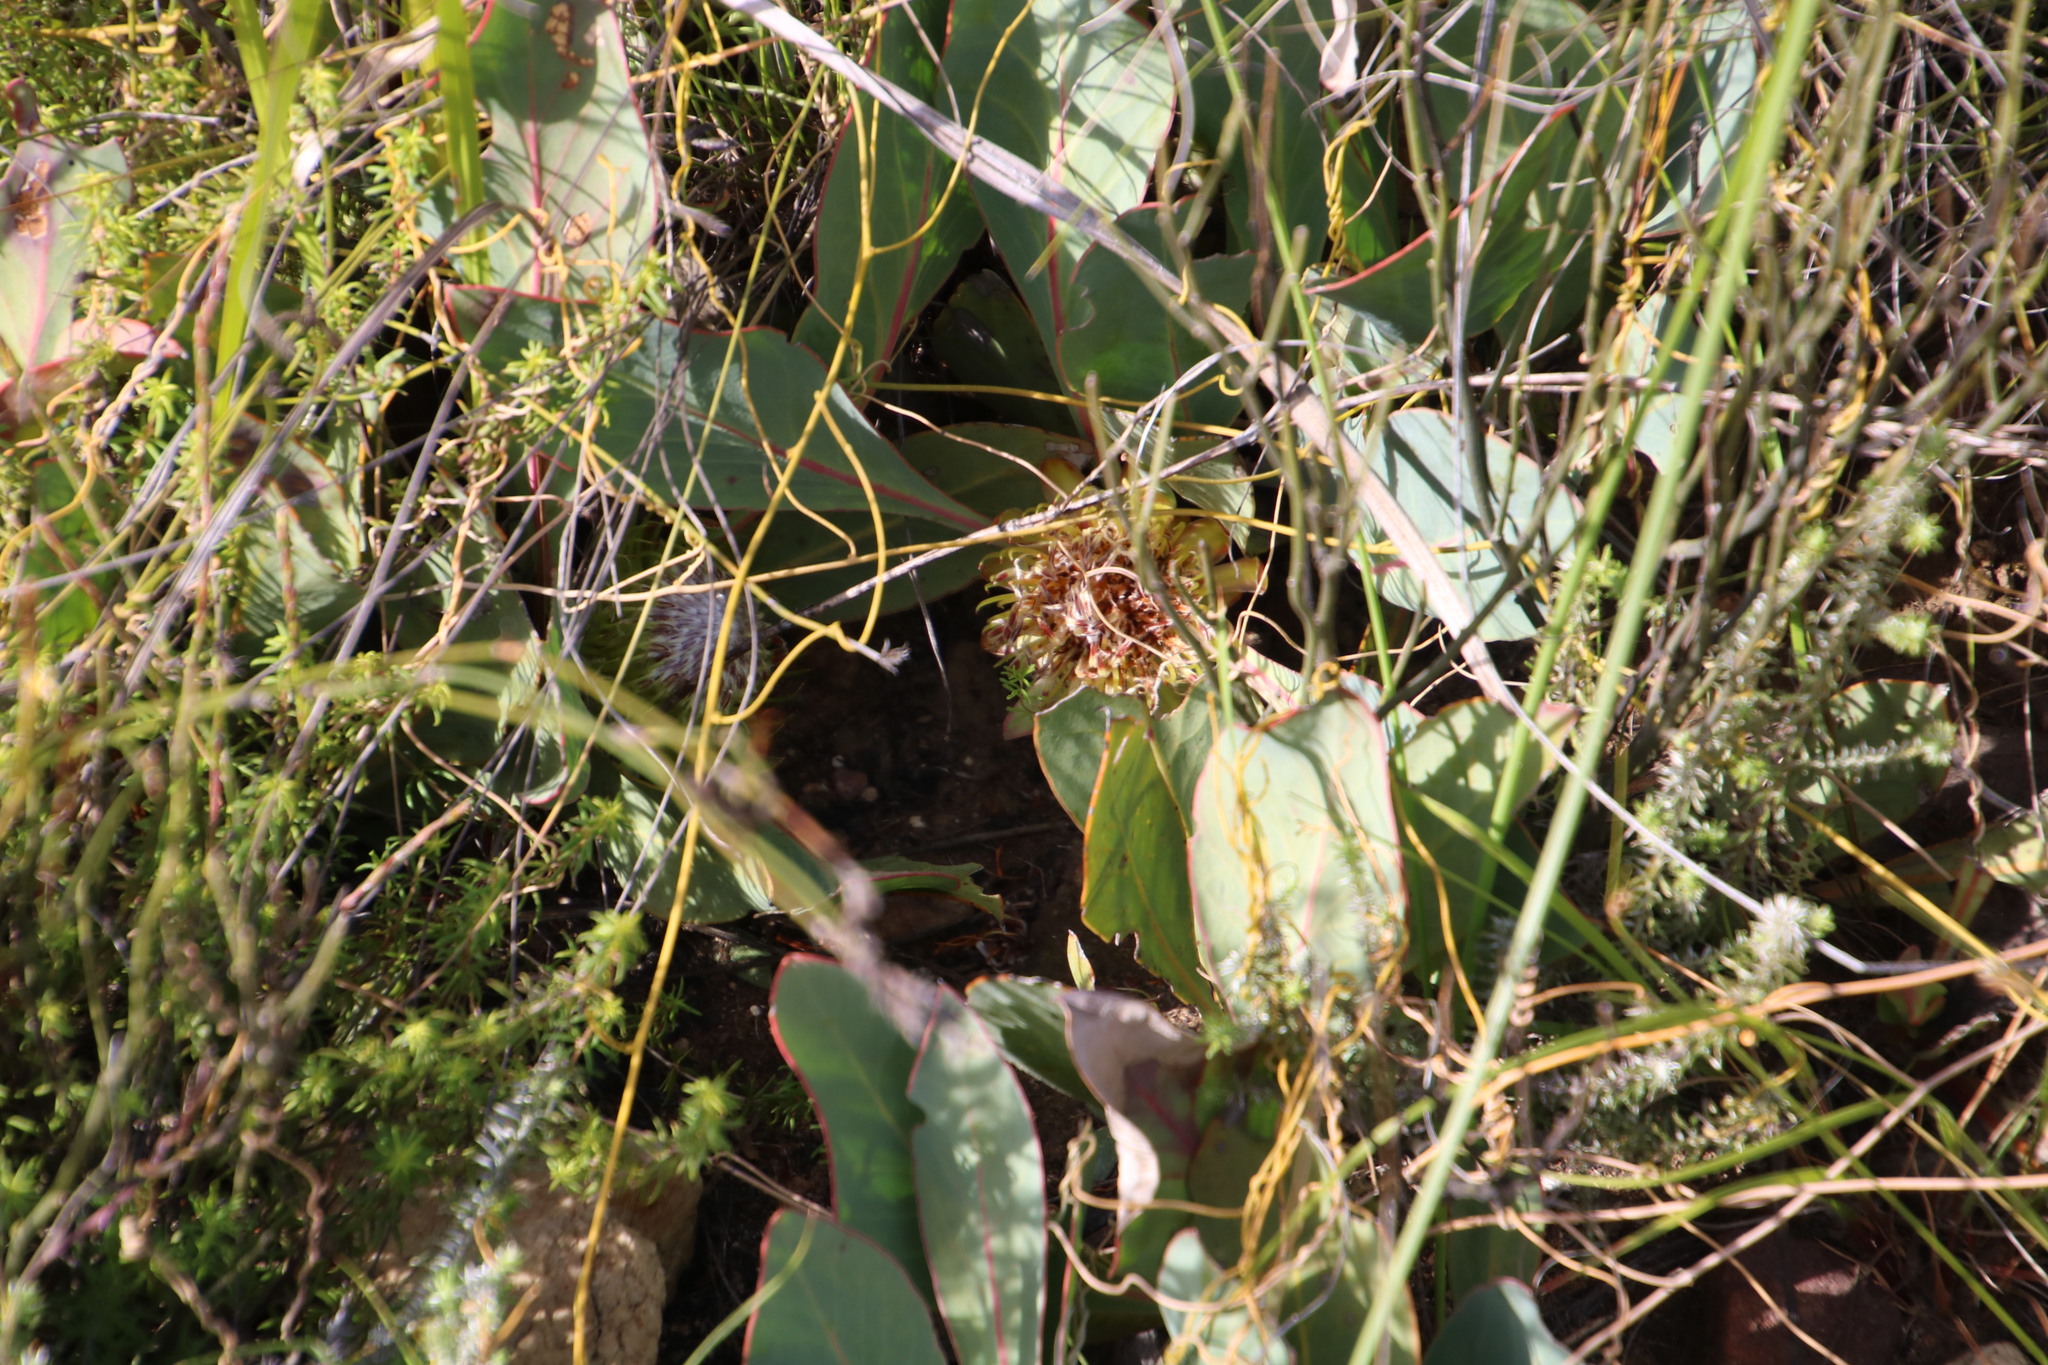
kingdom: Plantae
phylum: Tracheophyta
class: Magnoliopsida
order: Proteales
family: Proteaceae
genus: Protea
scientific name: Protea acaulos
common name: Common ground sugarbush
